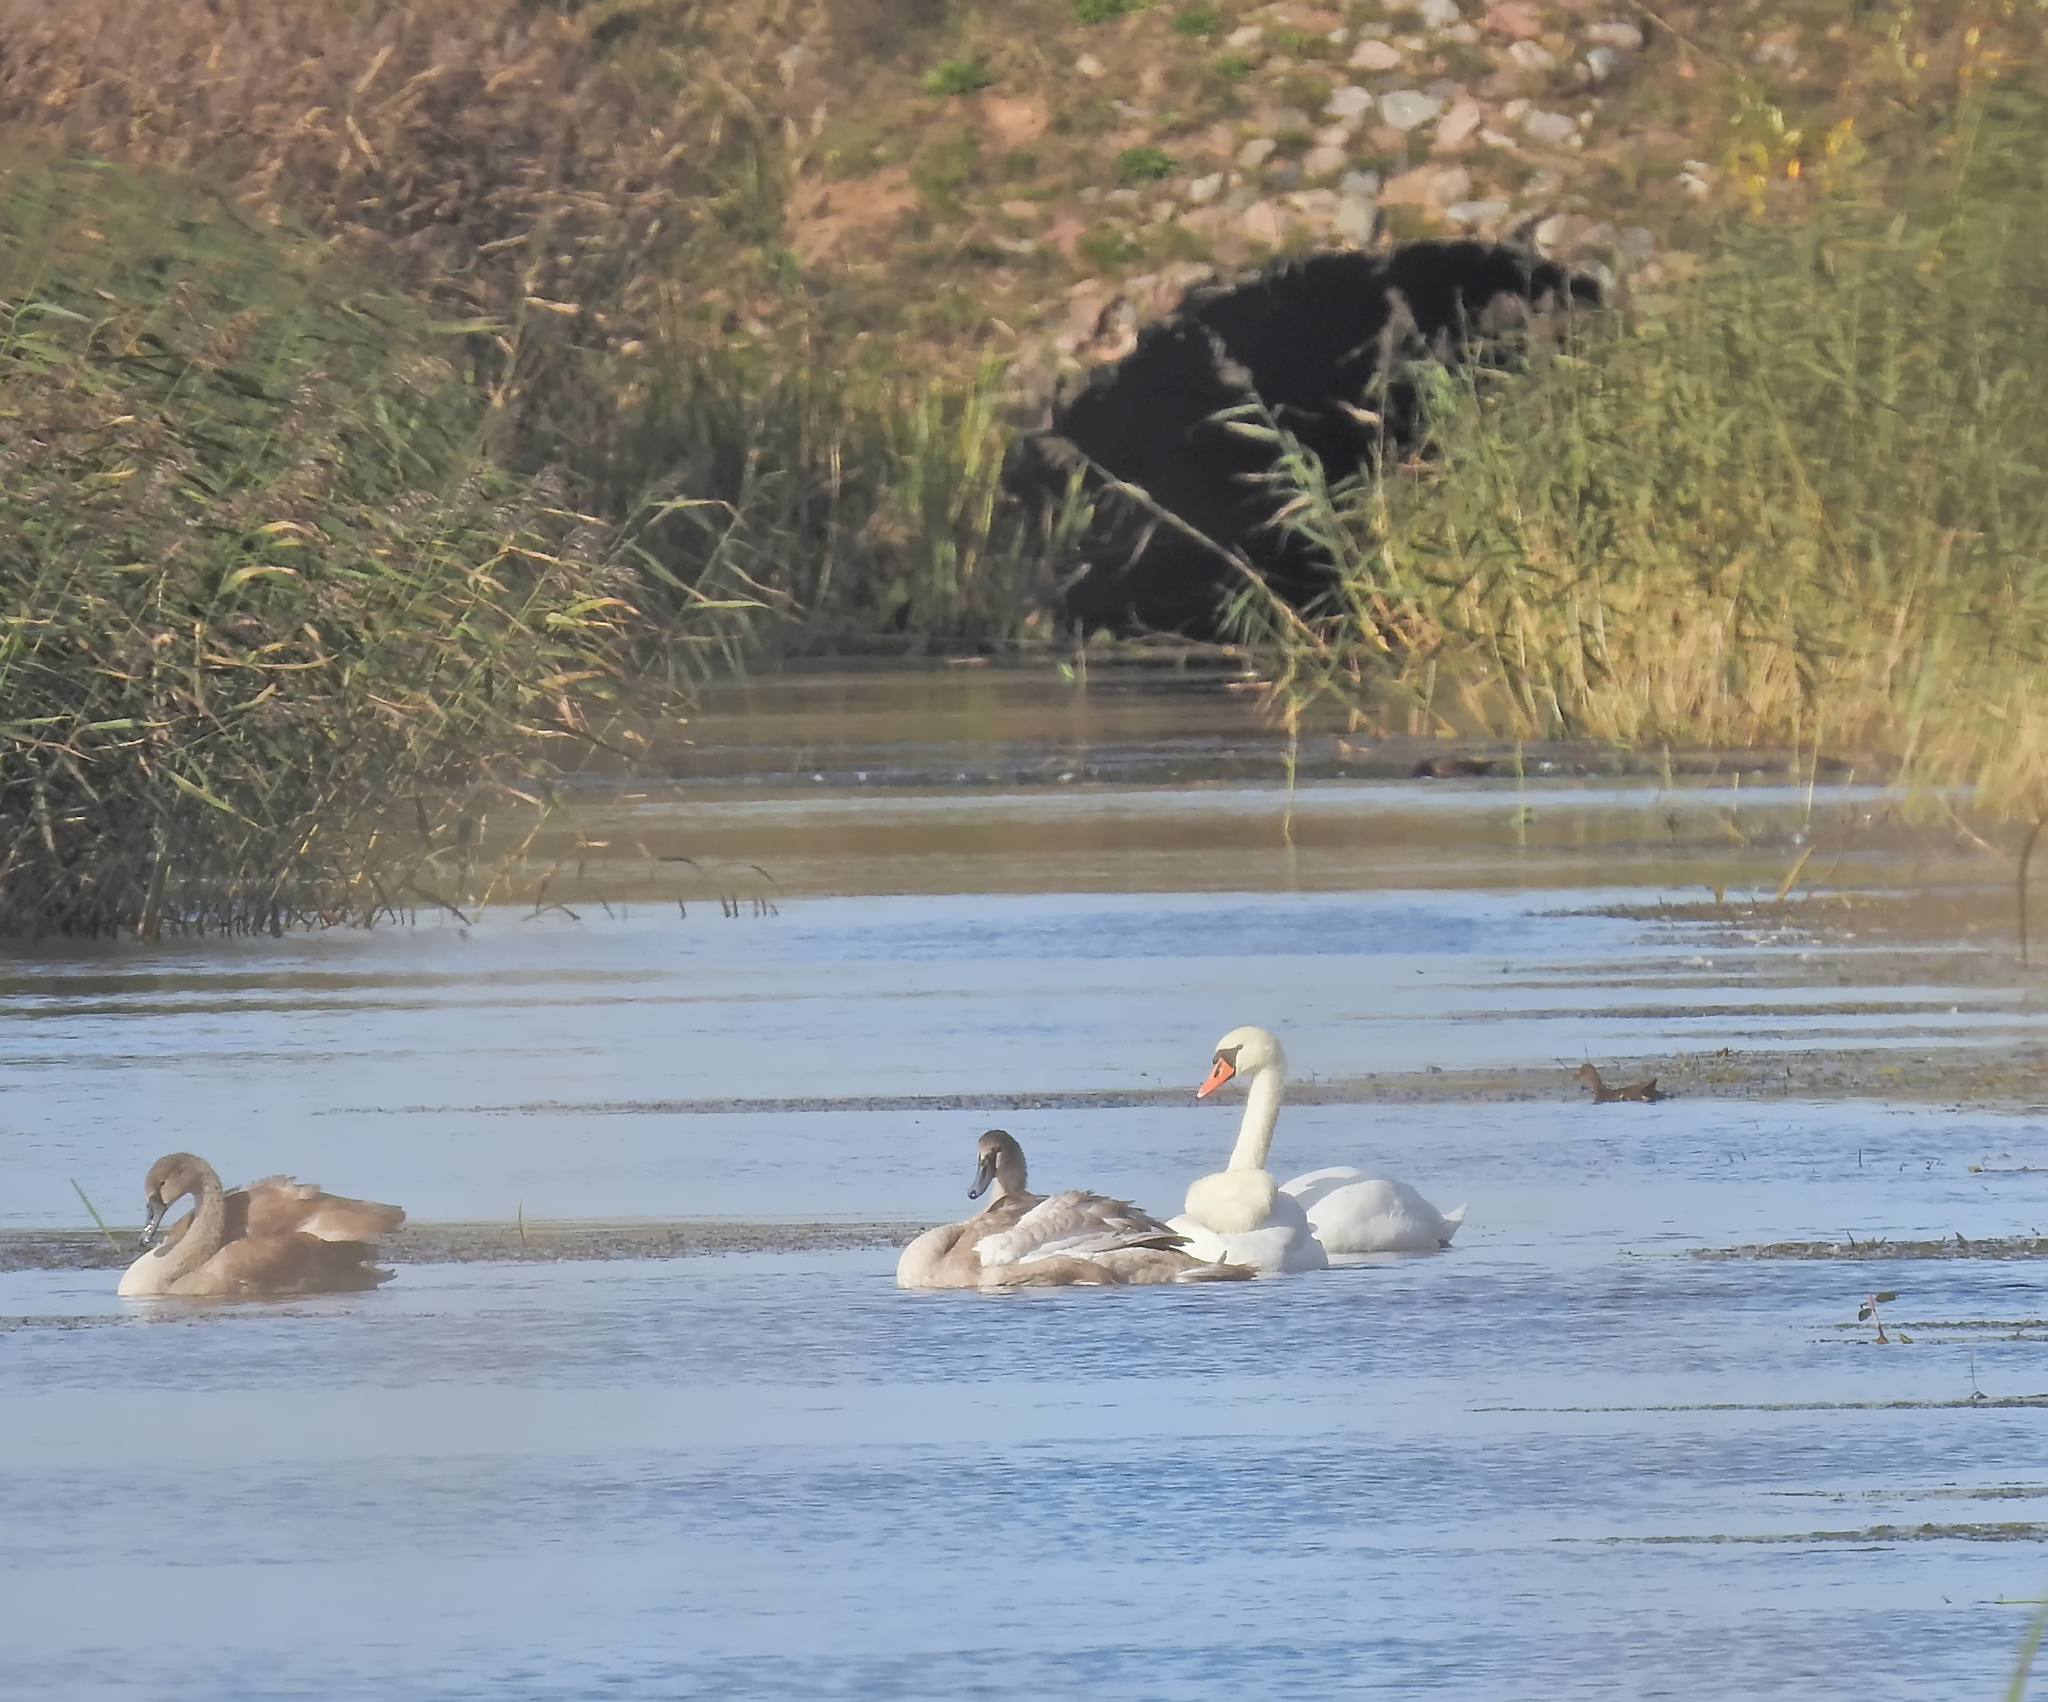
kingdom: Animalia
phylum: Chordata
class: Aves
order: Gruiformes
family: Rallidae
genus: Gallinula
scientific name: Gallinula chloropus
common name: Common moorhen
